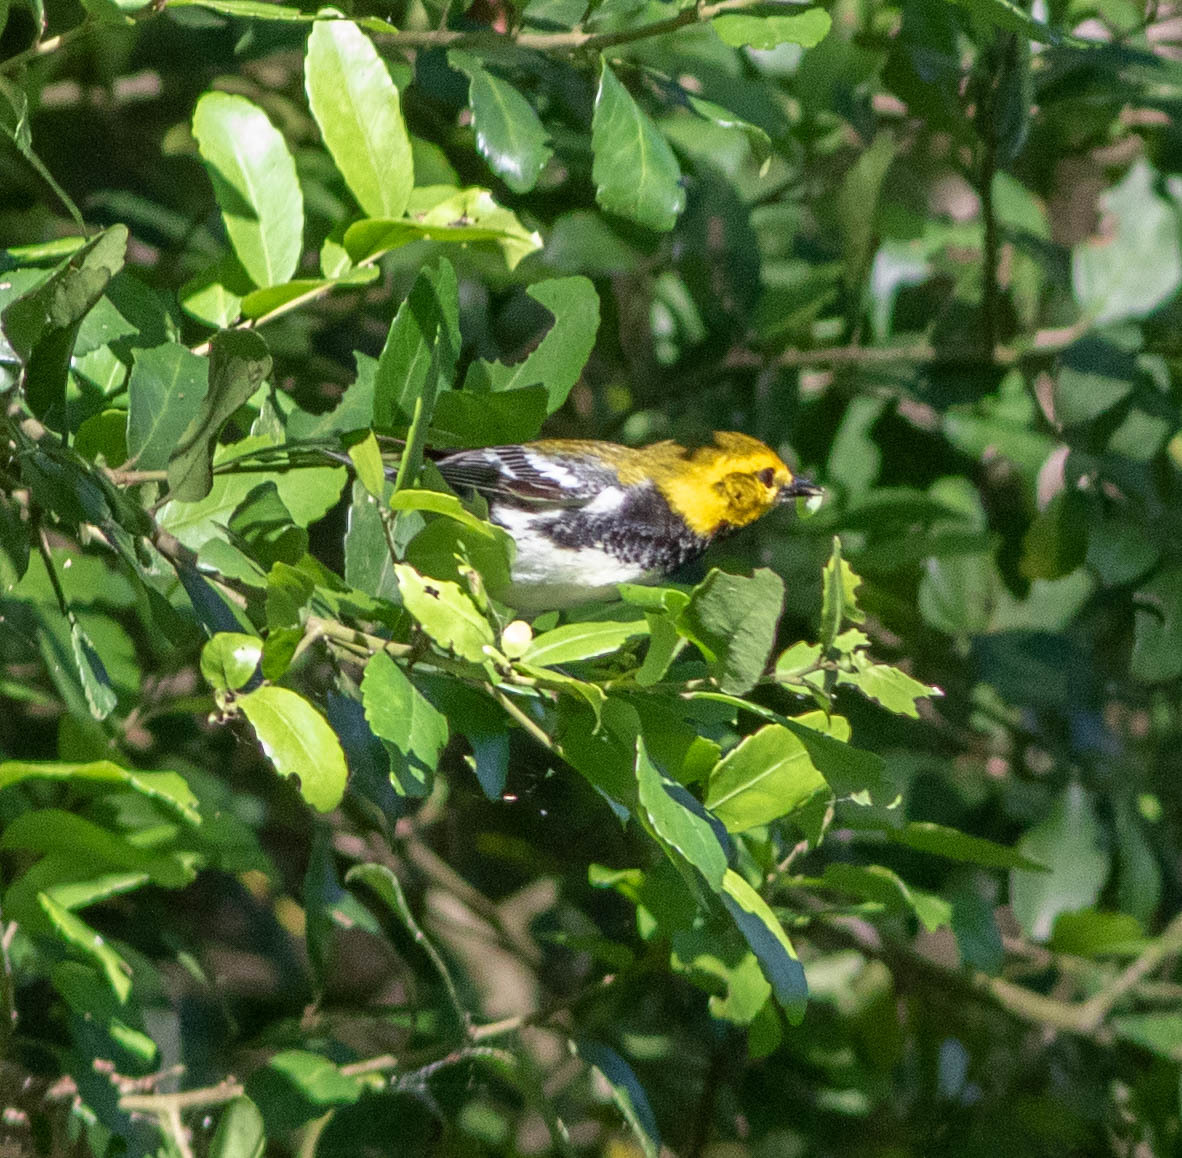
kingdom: Animalia
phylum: Chordata
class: Aves
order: Passeriformes
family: Parulidae
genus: Setophaga
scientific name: Setophaga virens
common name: Black-throated green warbler
